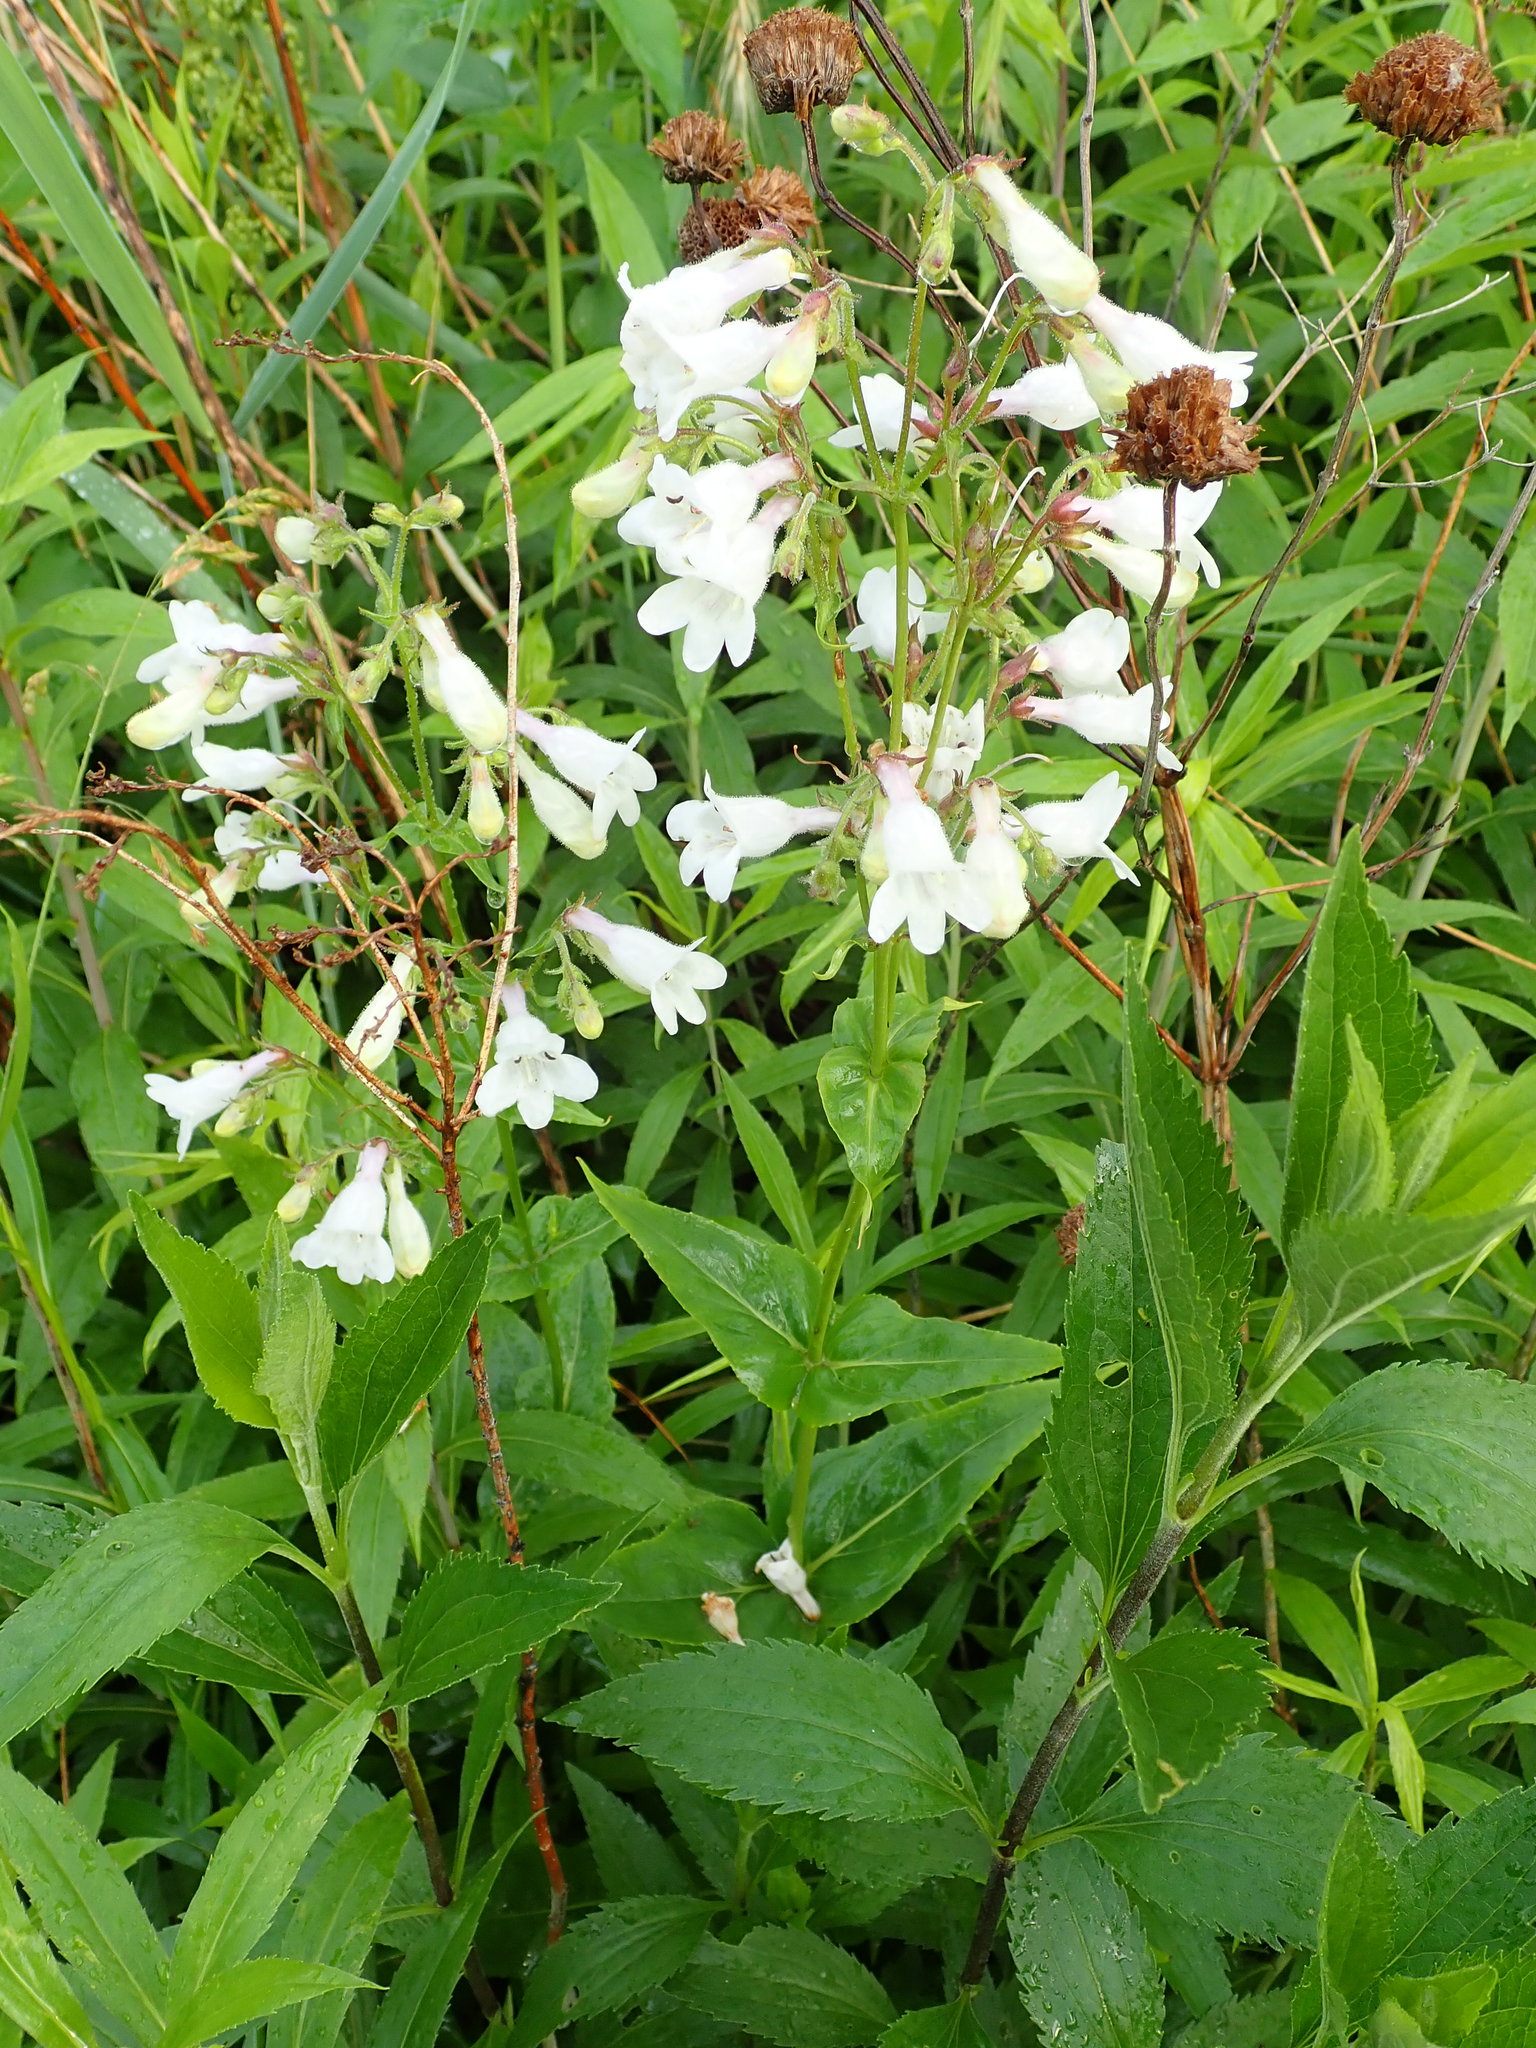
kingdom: Plantae
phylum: Tracheophyta
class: Magnoliopsida
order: Lamiales
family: Plantaginaceae
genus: Penstemon
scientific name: Penstemon digitalis
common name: Foxglove beardtongue
